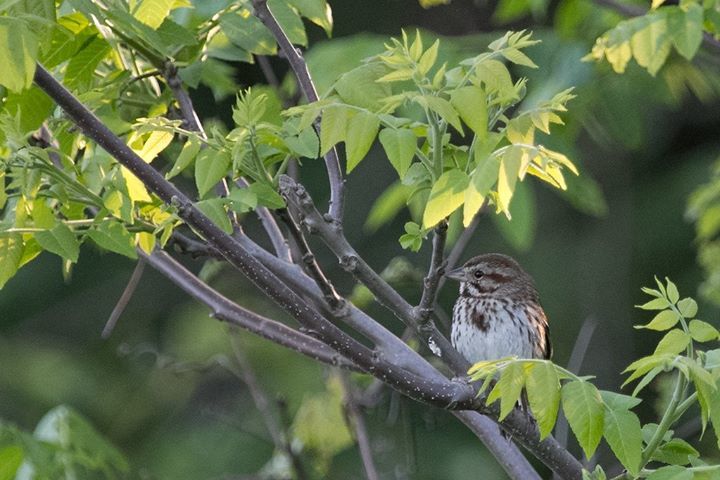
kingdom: Animalia
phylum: Chordata
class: Aves
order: Passeriformes
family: Passerellidae
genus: Melospiza
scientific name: Melospiza melodia
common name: Song sparrow
